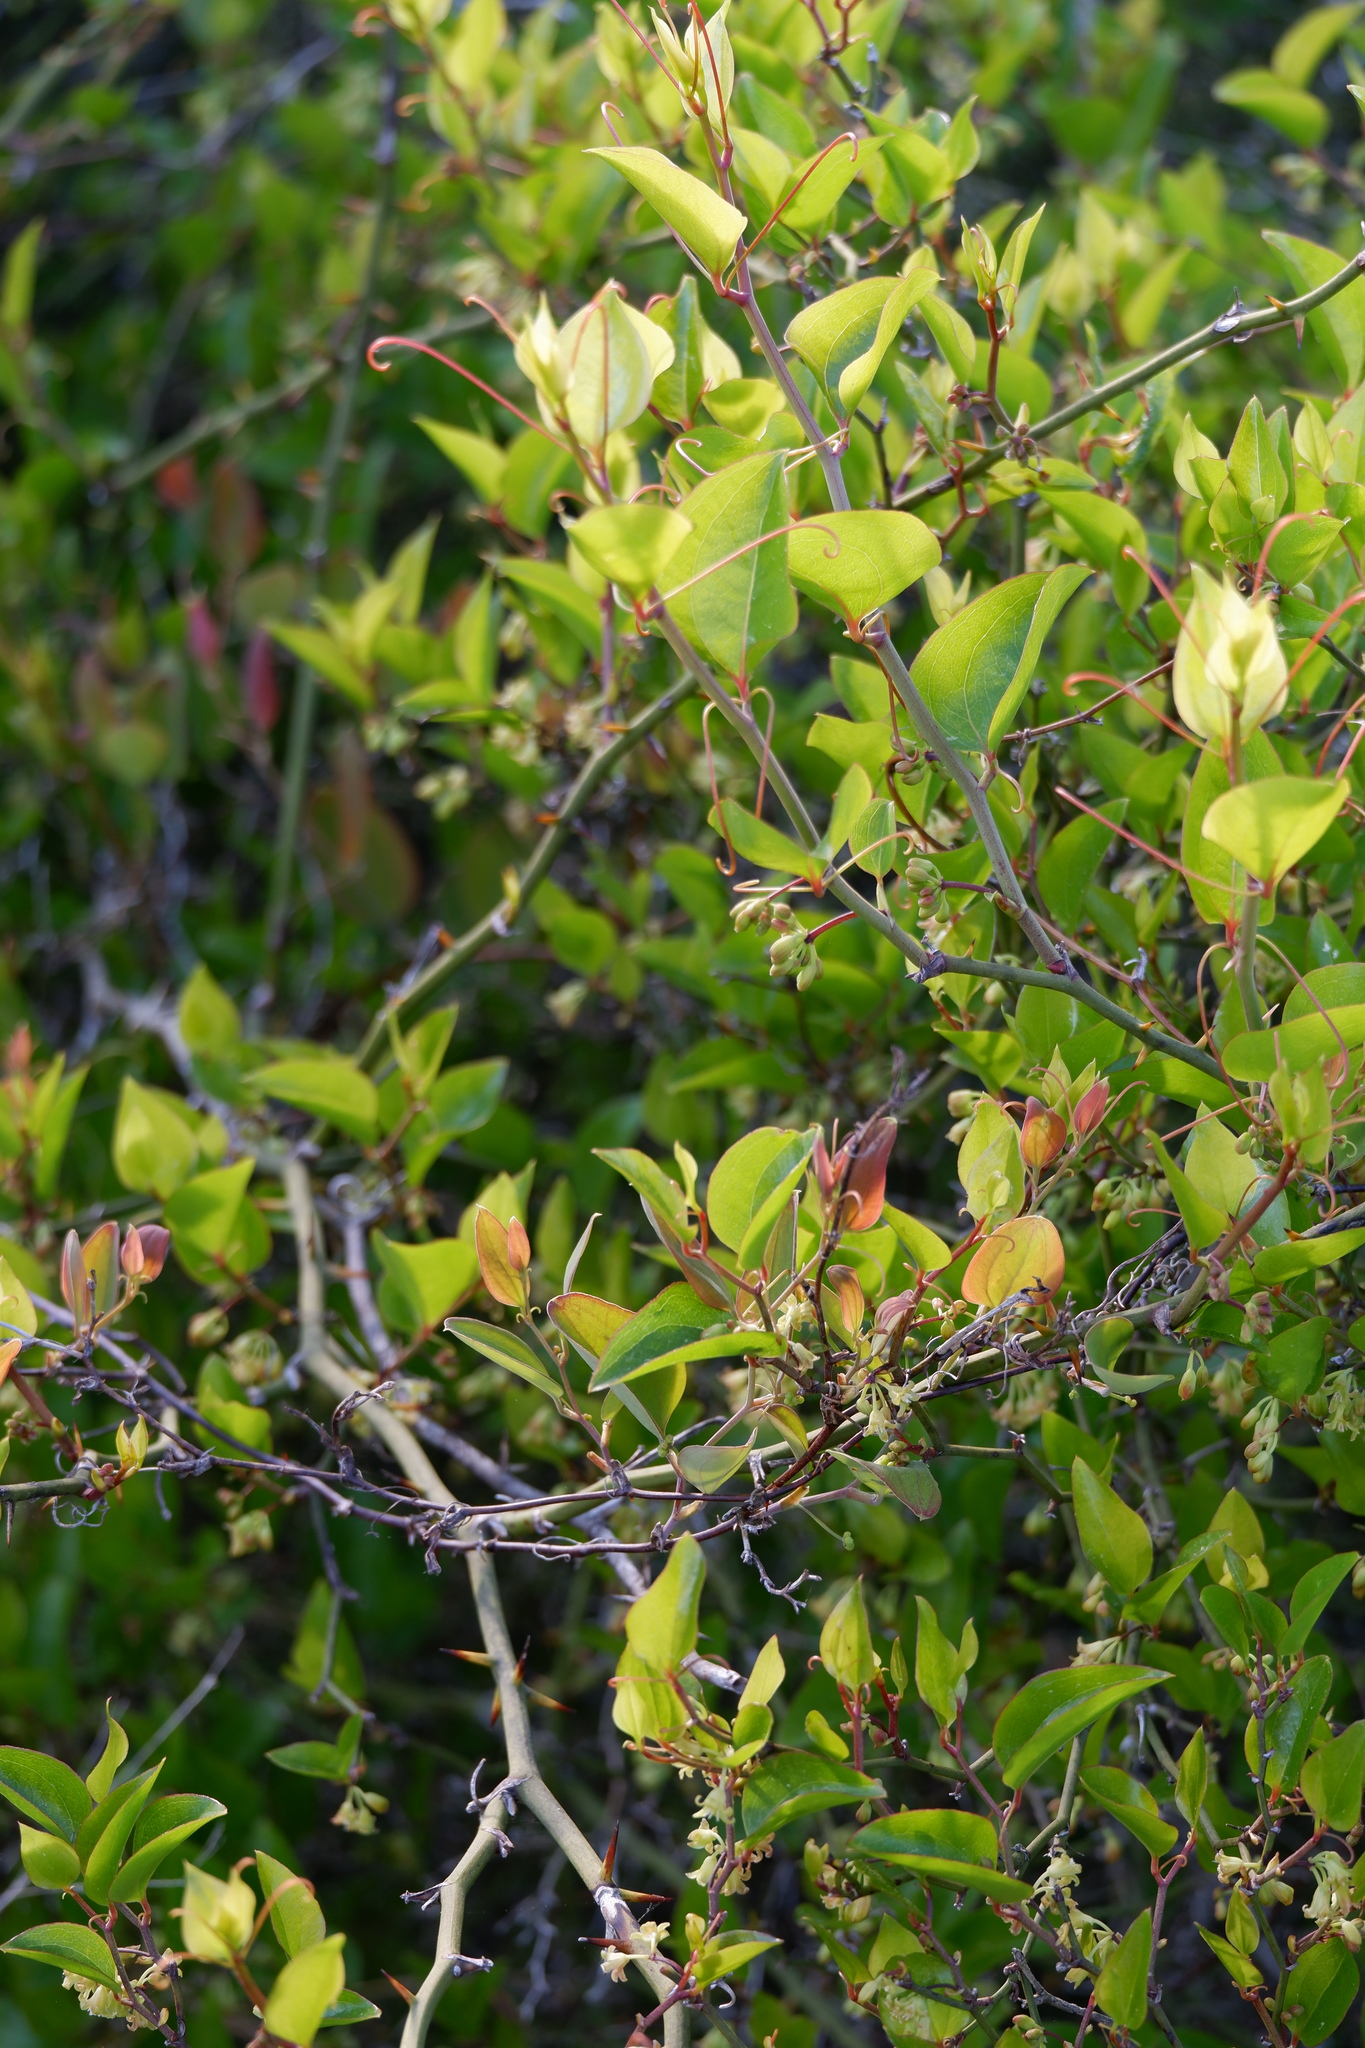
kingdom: Plantae
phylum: Tracheophyta
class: Liliopsida
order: Liliales
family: Smilacaceae
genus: Smilax
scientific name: Smilax rotundifolia
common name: Bullbriar
